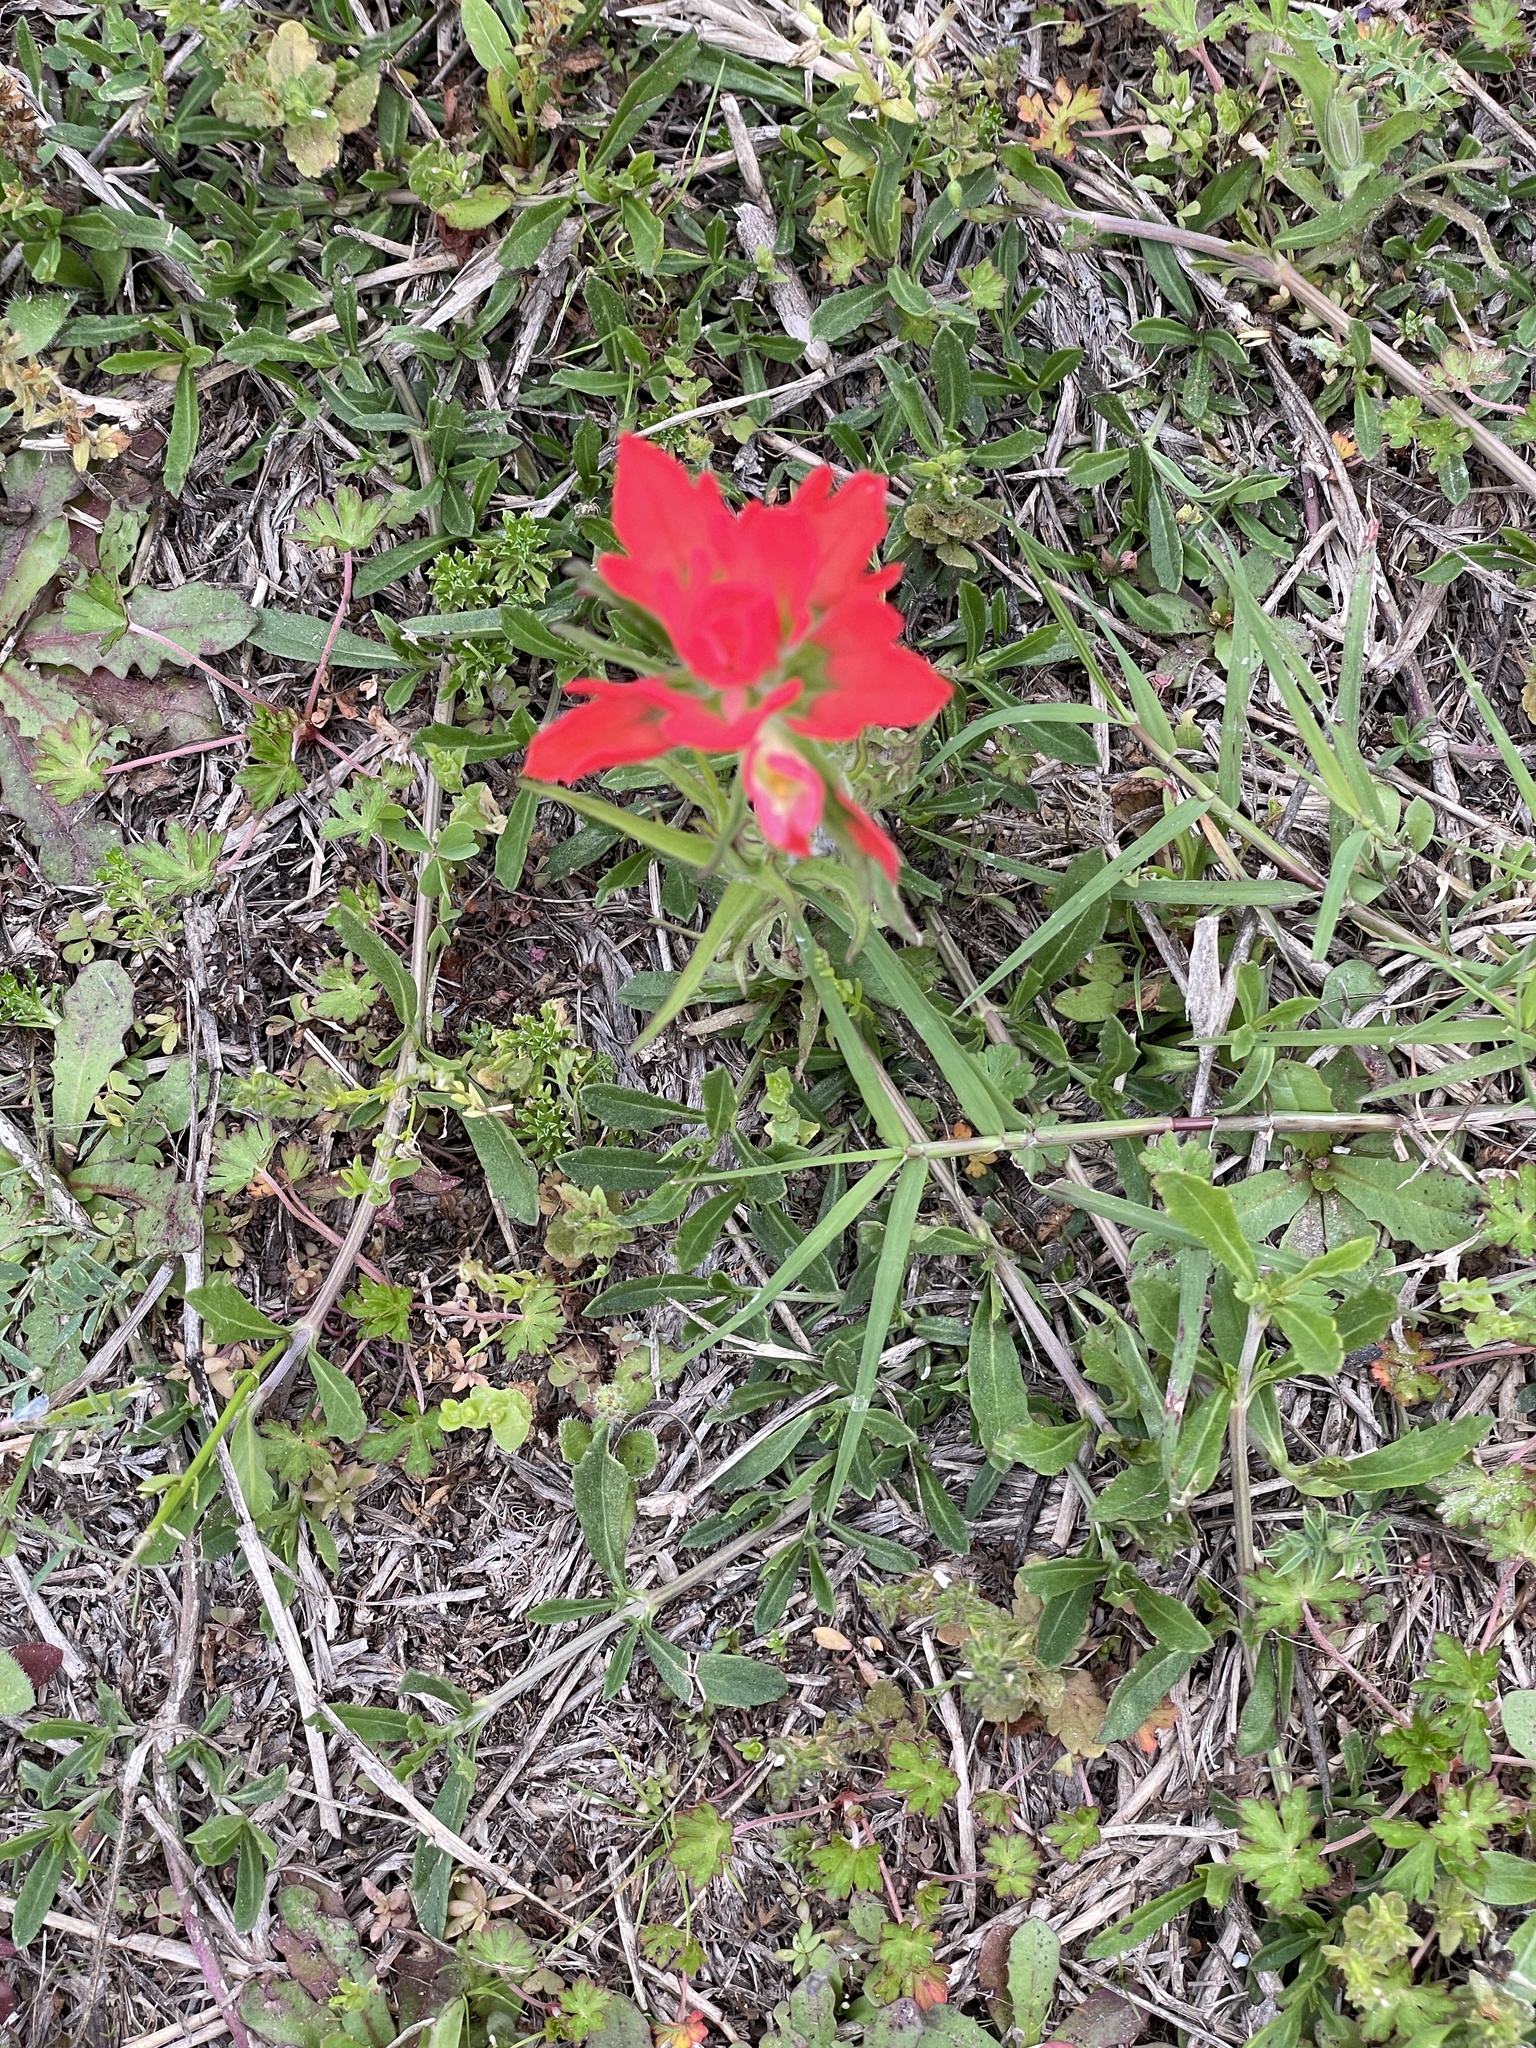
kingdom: Plantae
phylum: Tracheophyta
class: Magnoliopsida
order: Lamiales
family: Orobanchaceae
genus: Castilleja
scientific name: Castilleja indivisa
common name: Texas paintbrush
